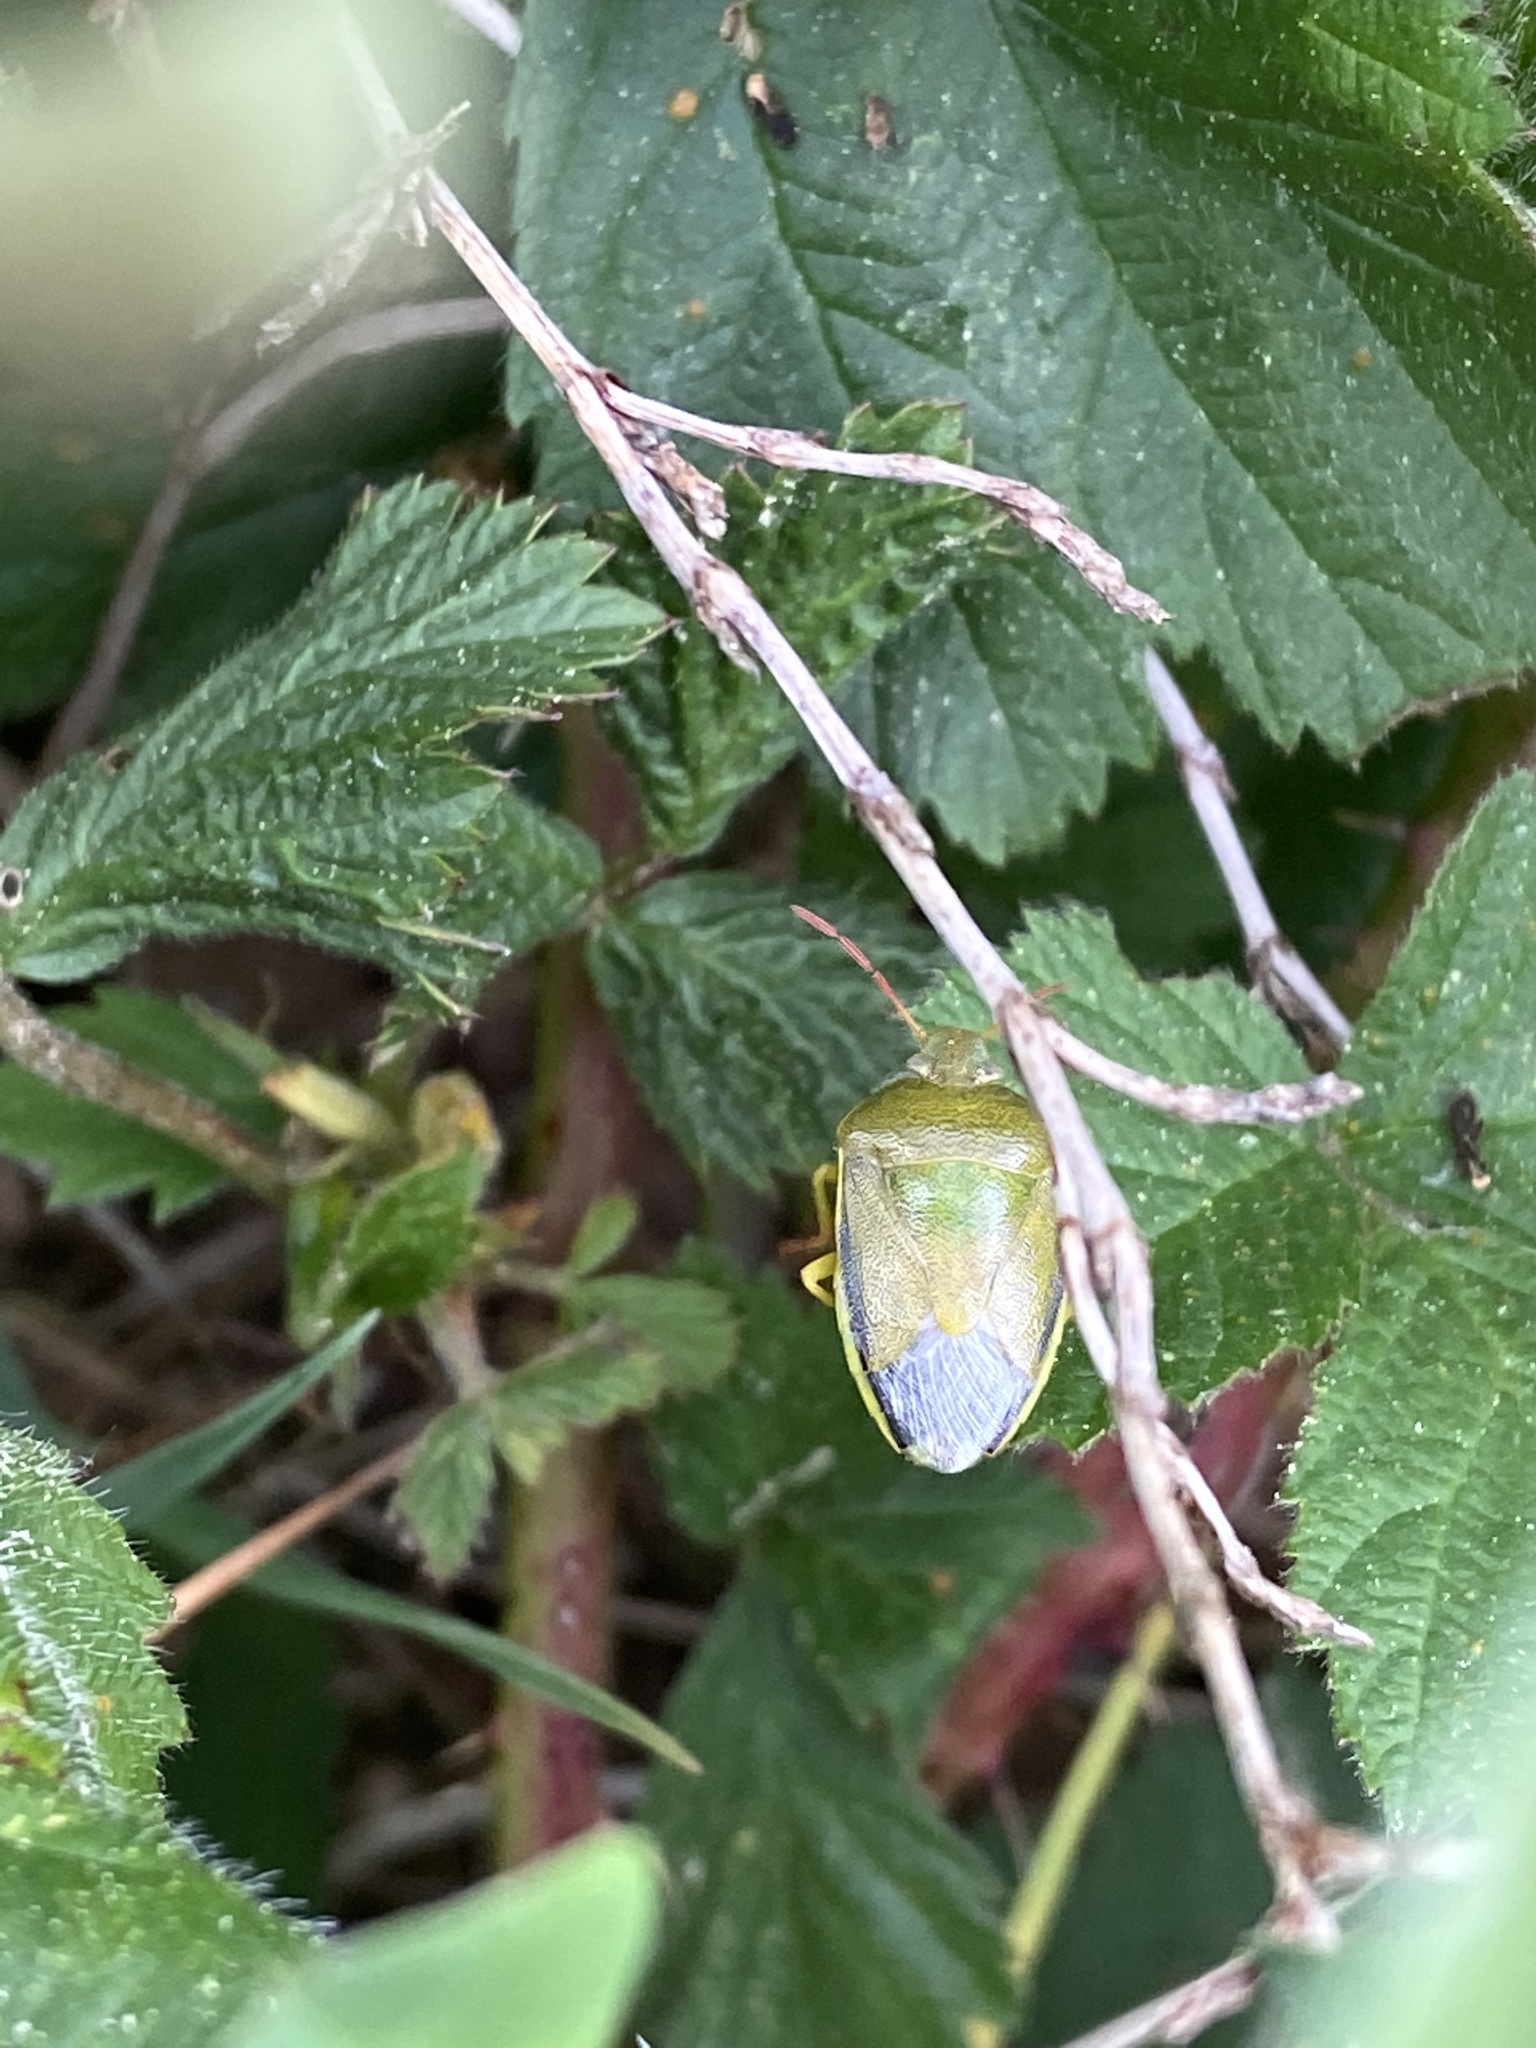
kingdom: Animalia
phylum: Arthropoda
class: Insecta
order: Hemiptera
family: Pentatomidae
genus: Piezodorus
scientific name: Piezodorus lituratus
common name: Stink bug
